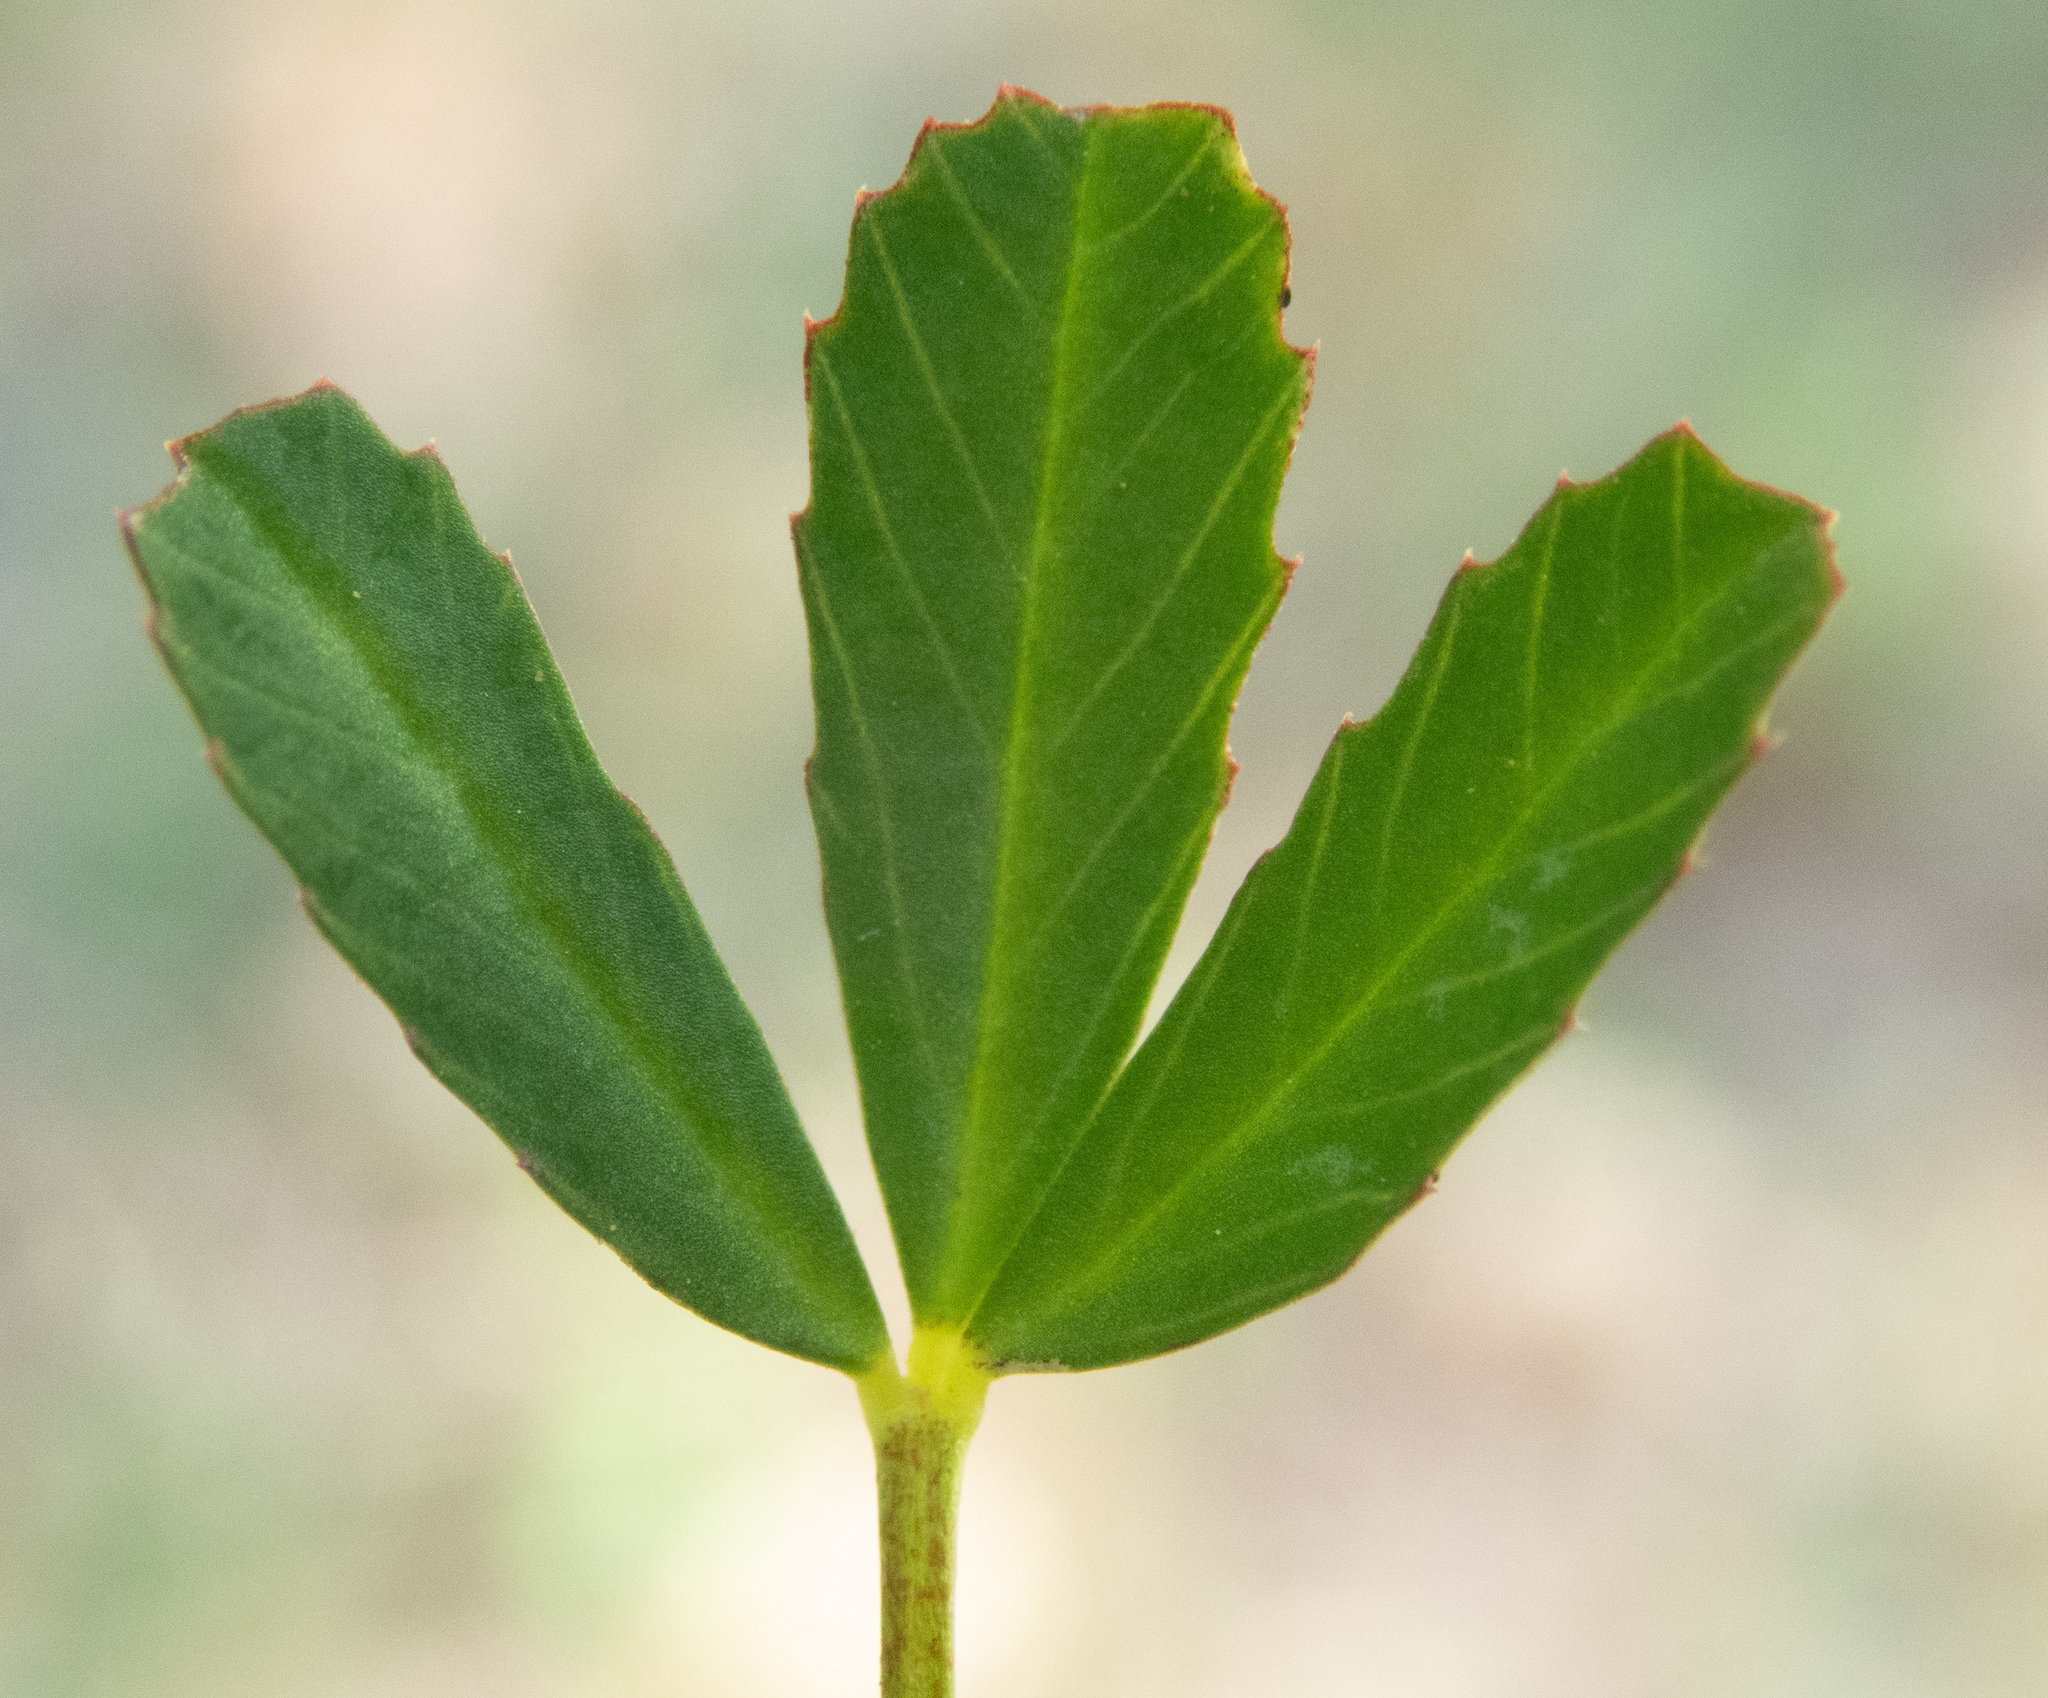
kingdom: Plantae
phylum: Tracheophyta
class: Magnoliopsida
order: Fabales
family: Fabaceae
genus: Trifolium
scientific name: Trifolium depauperatum
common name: Poverty clover
